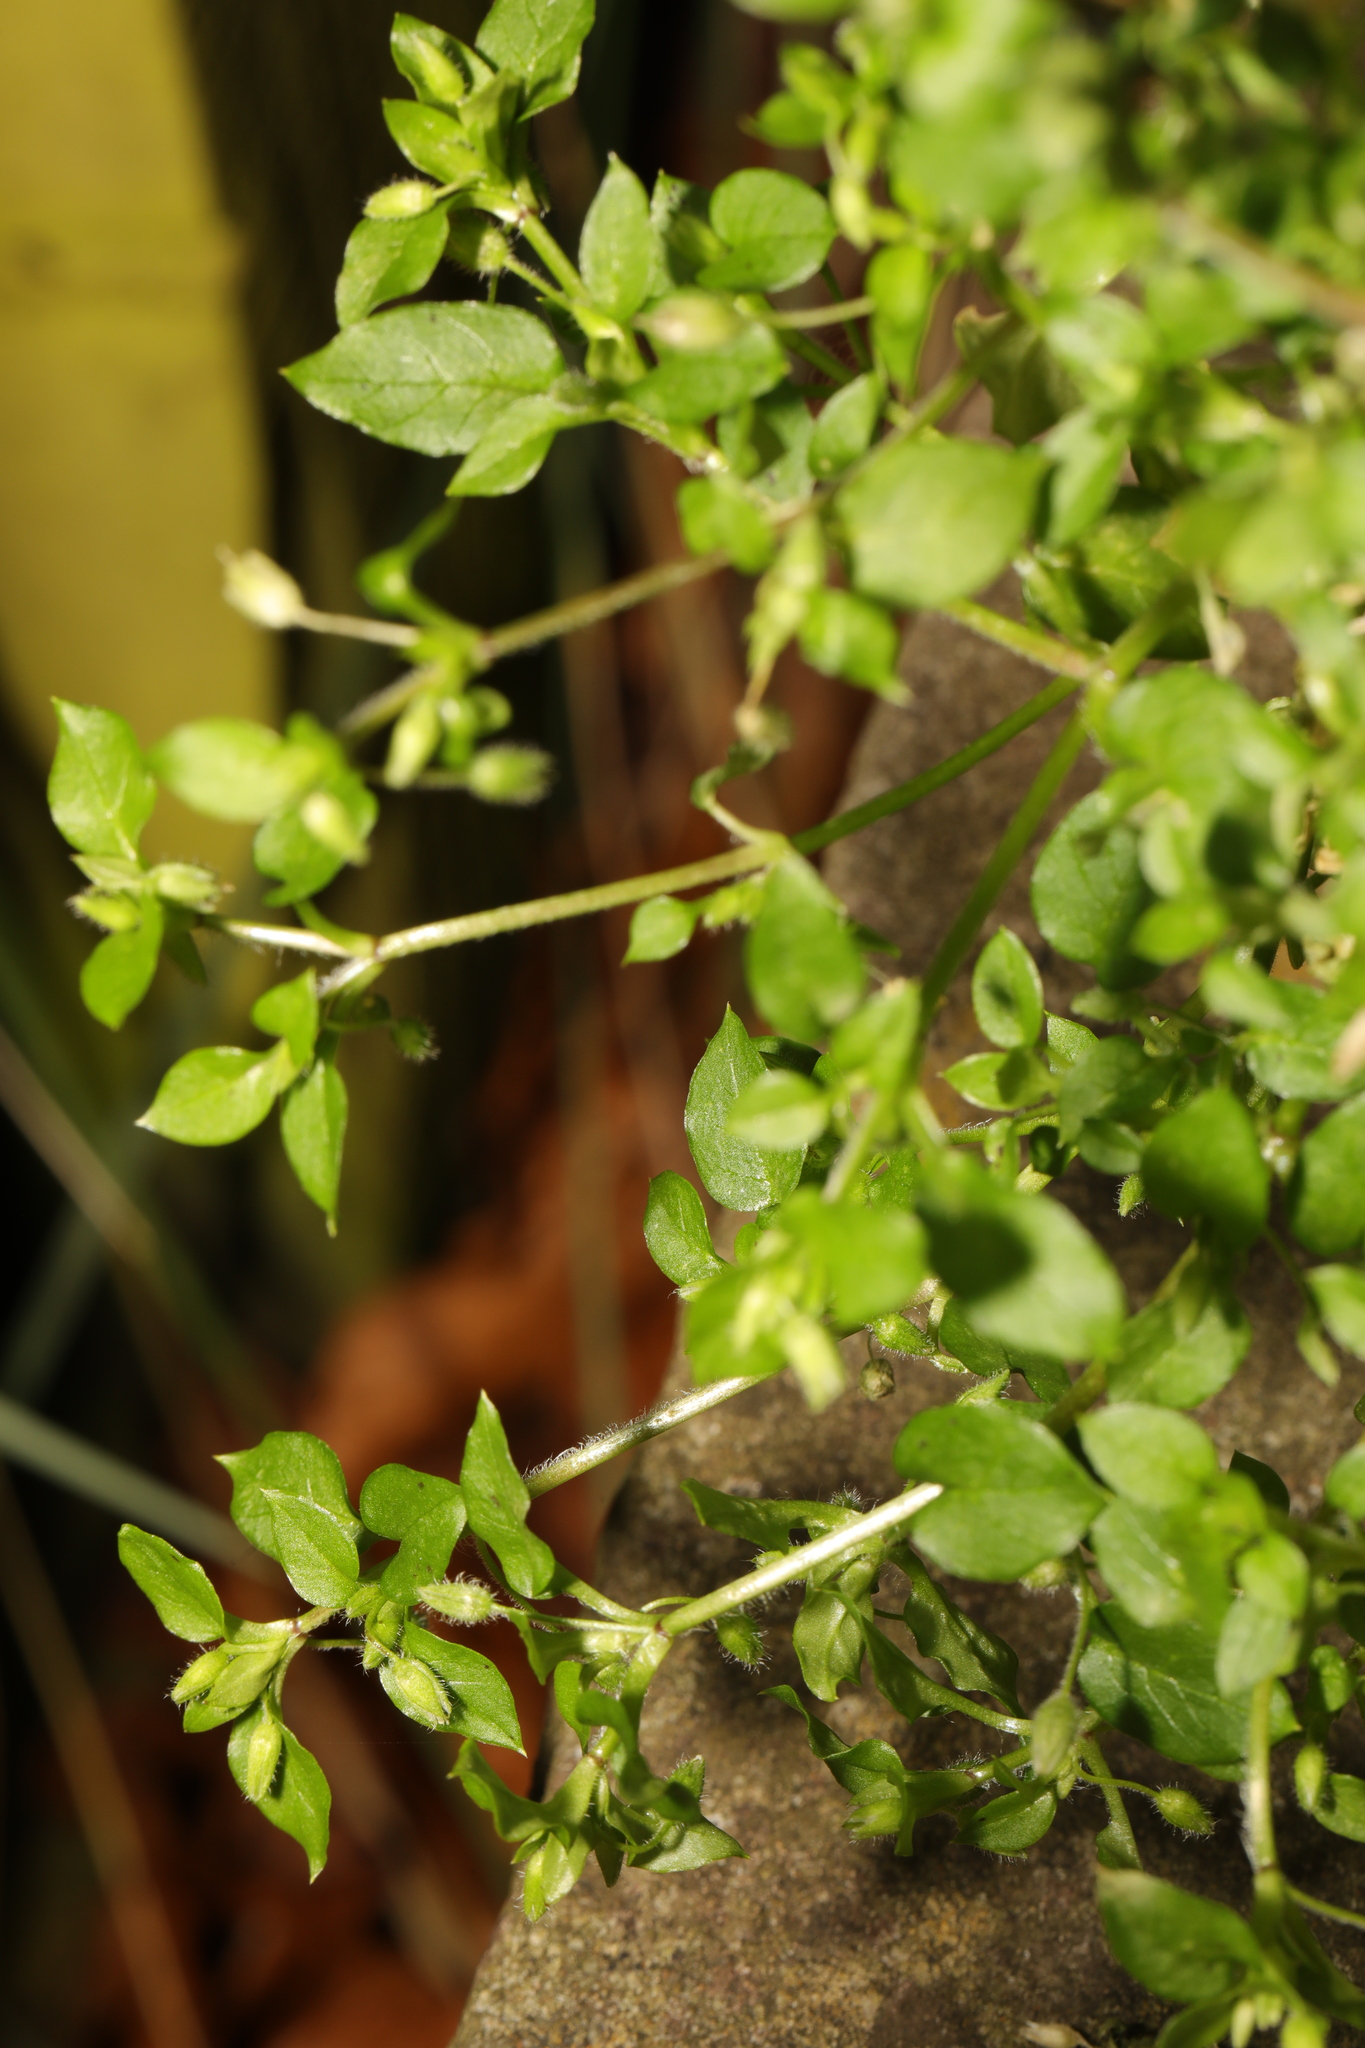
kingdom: Plantae
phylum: Tracheophyta
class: Magnoliopsida
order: Caryophyllales
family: Caryophyllaceae
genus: Stellaria
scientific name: Stellaria media
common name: Common chickweed
